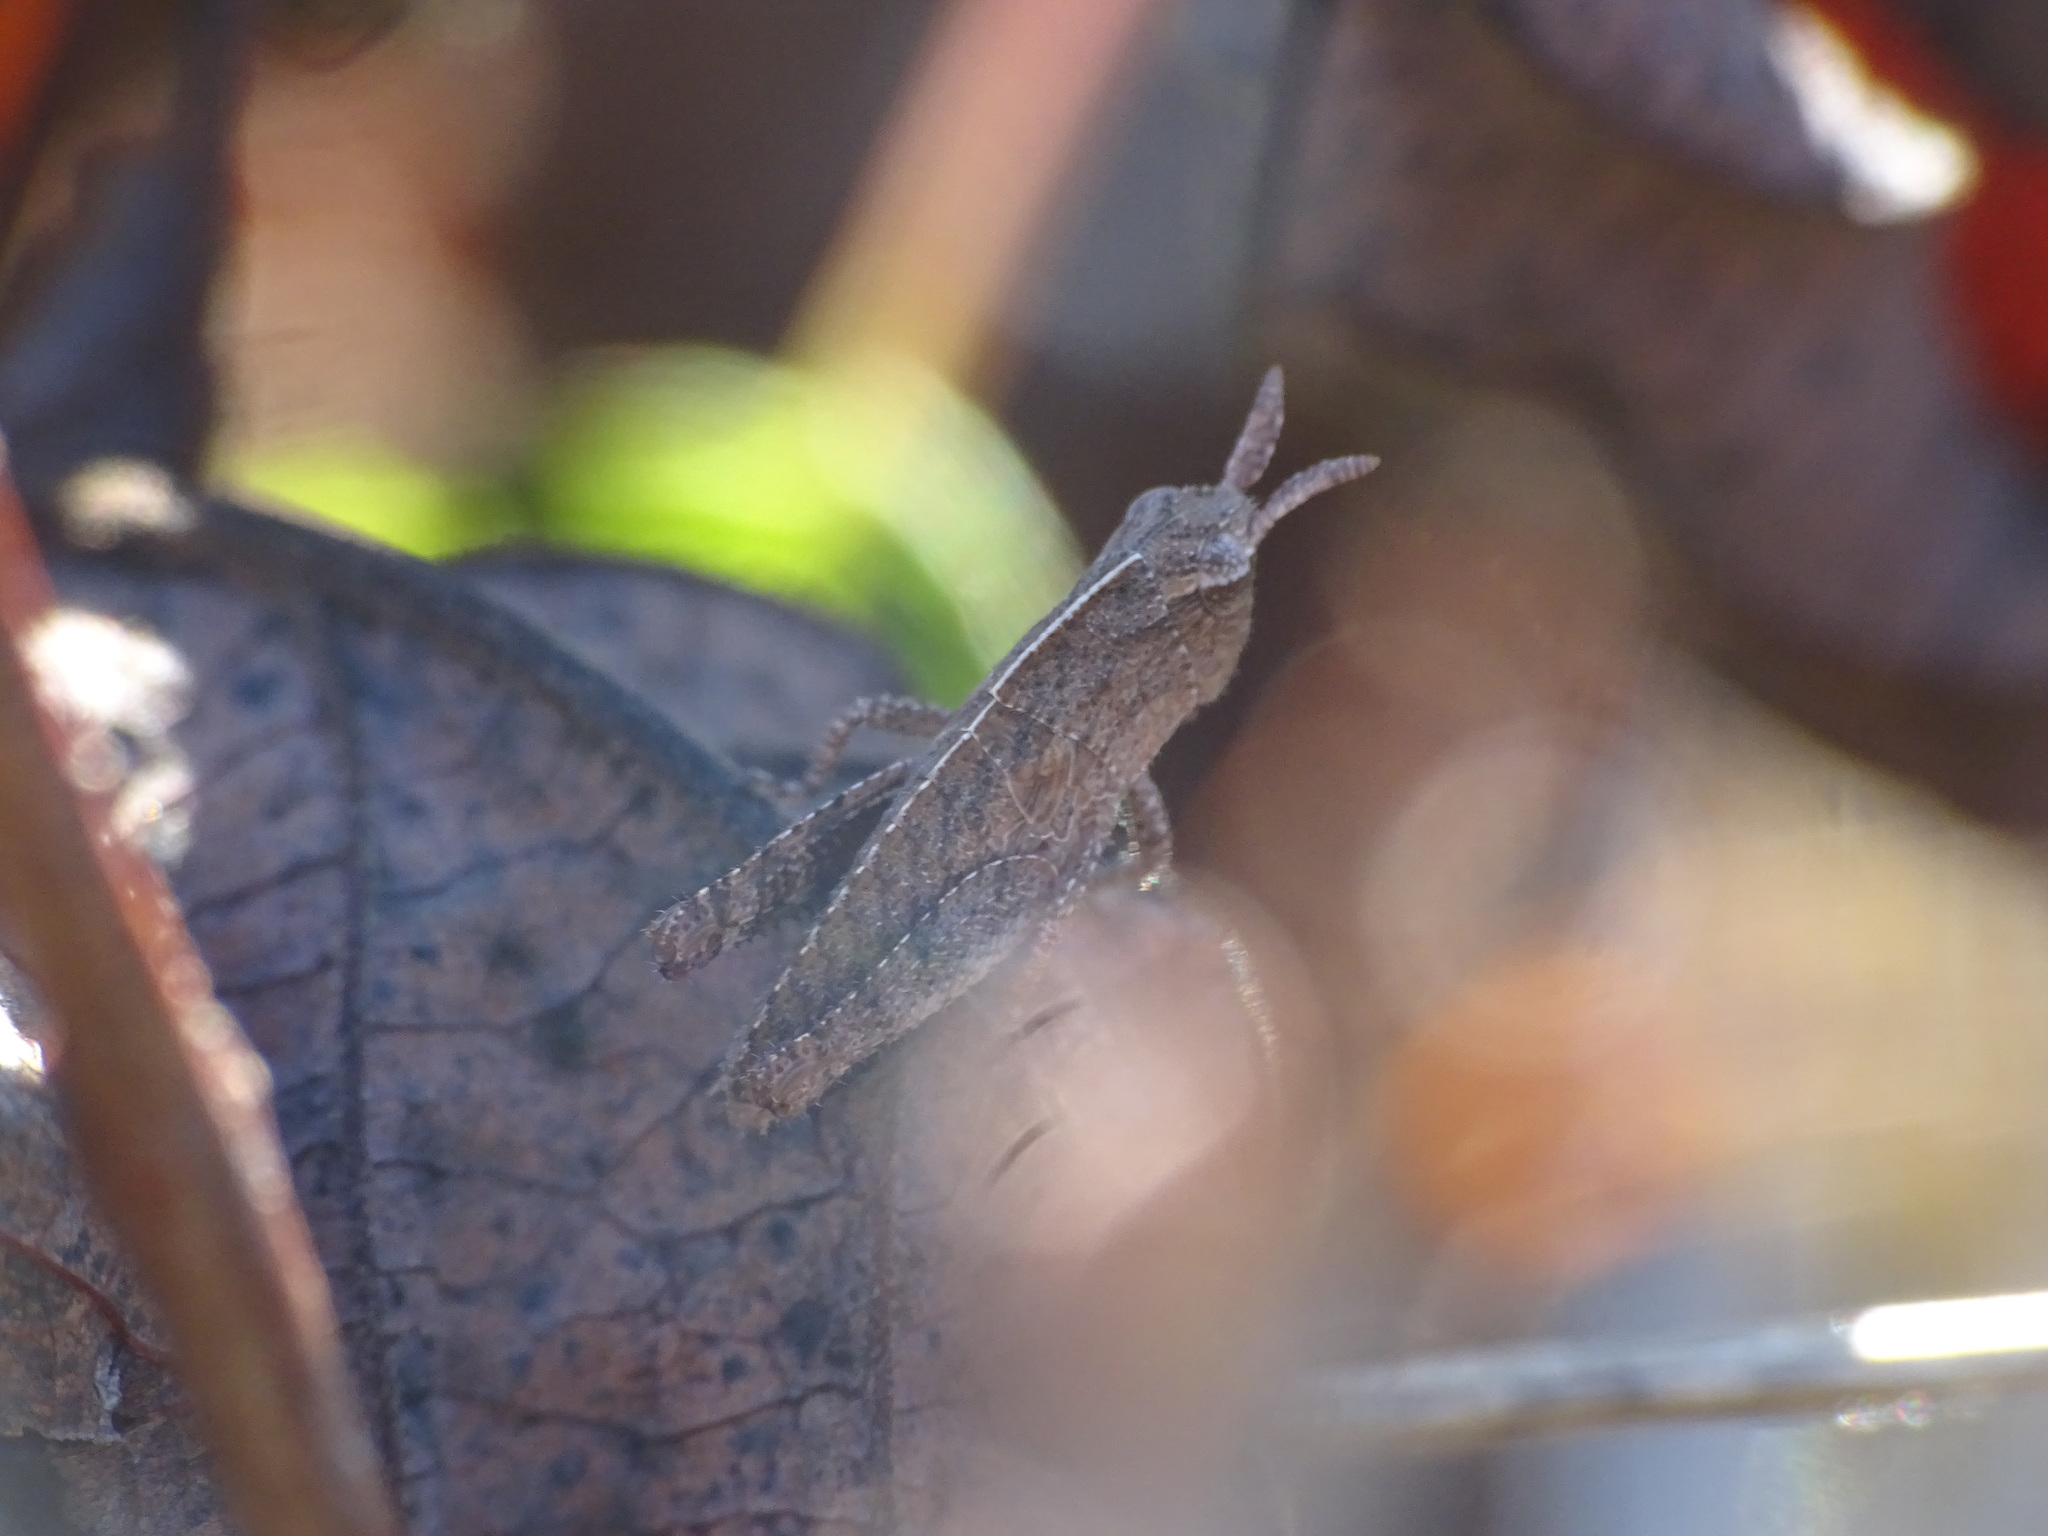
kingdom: Animalia
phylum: Arthropoda
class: Insecta
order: Orthoptera
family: Acrididae
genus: Chortophaga
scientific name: Chortophaga viridifasciata
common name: Green-striped grasshopper
